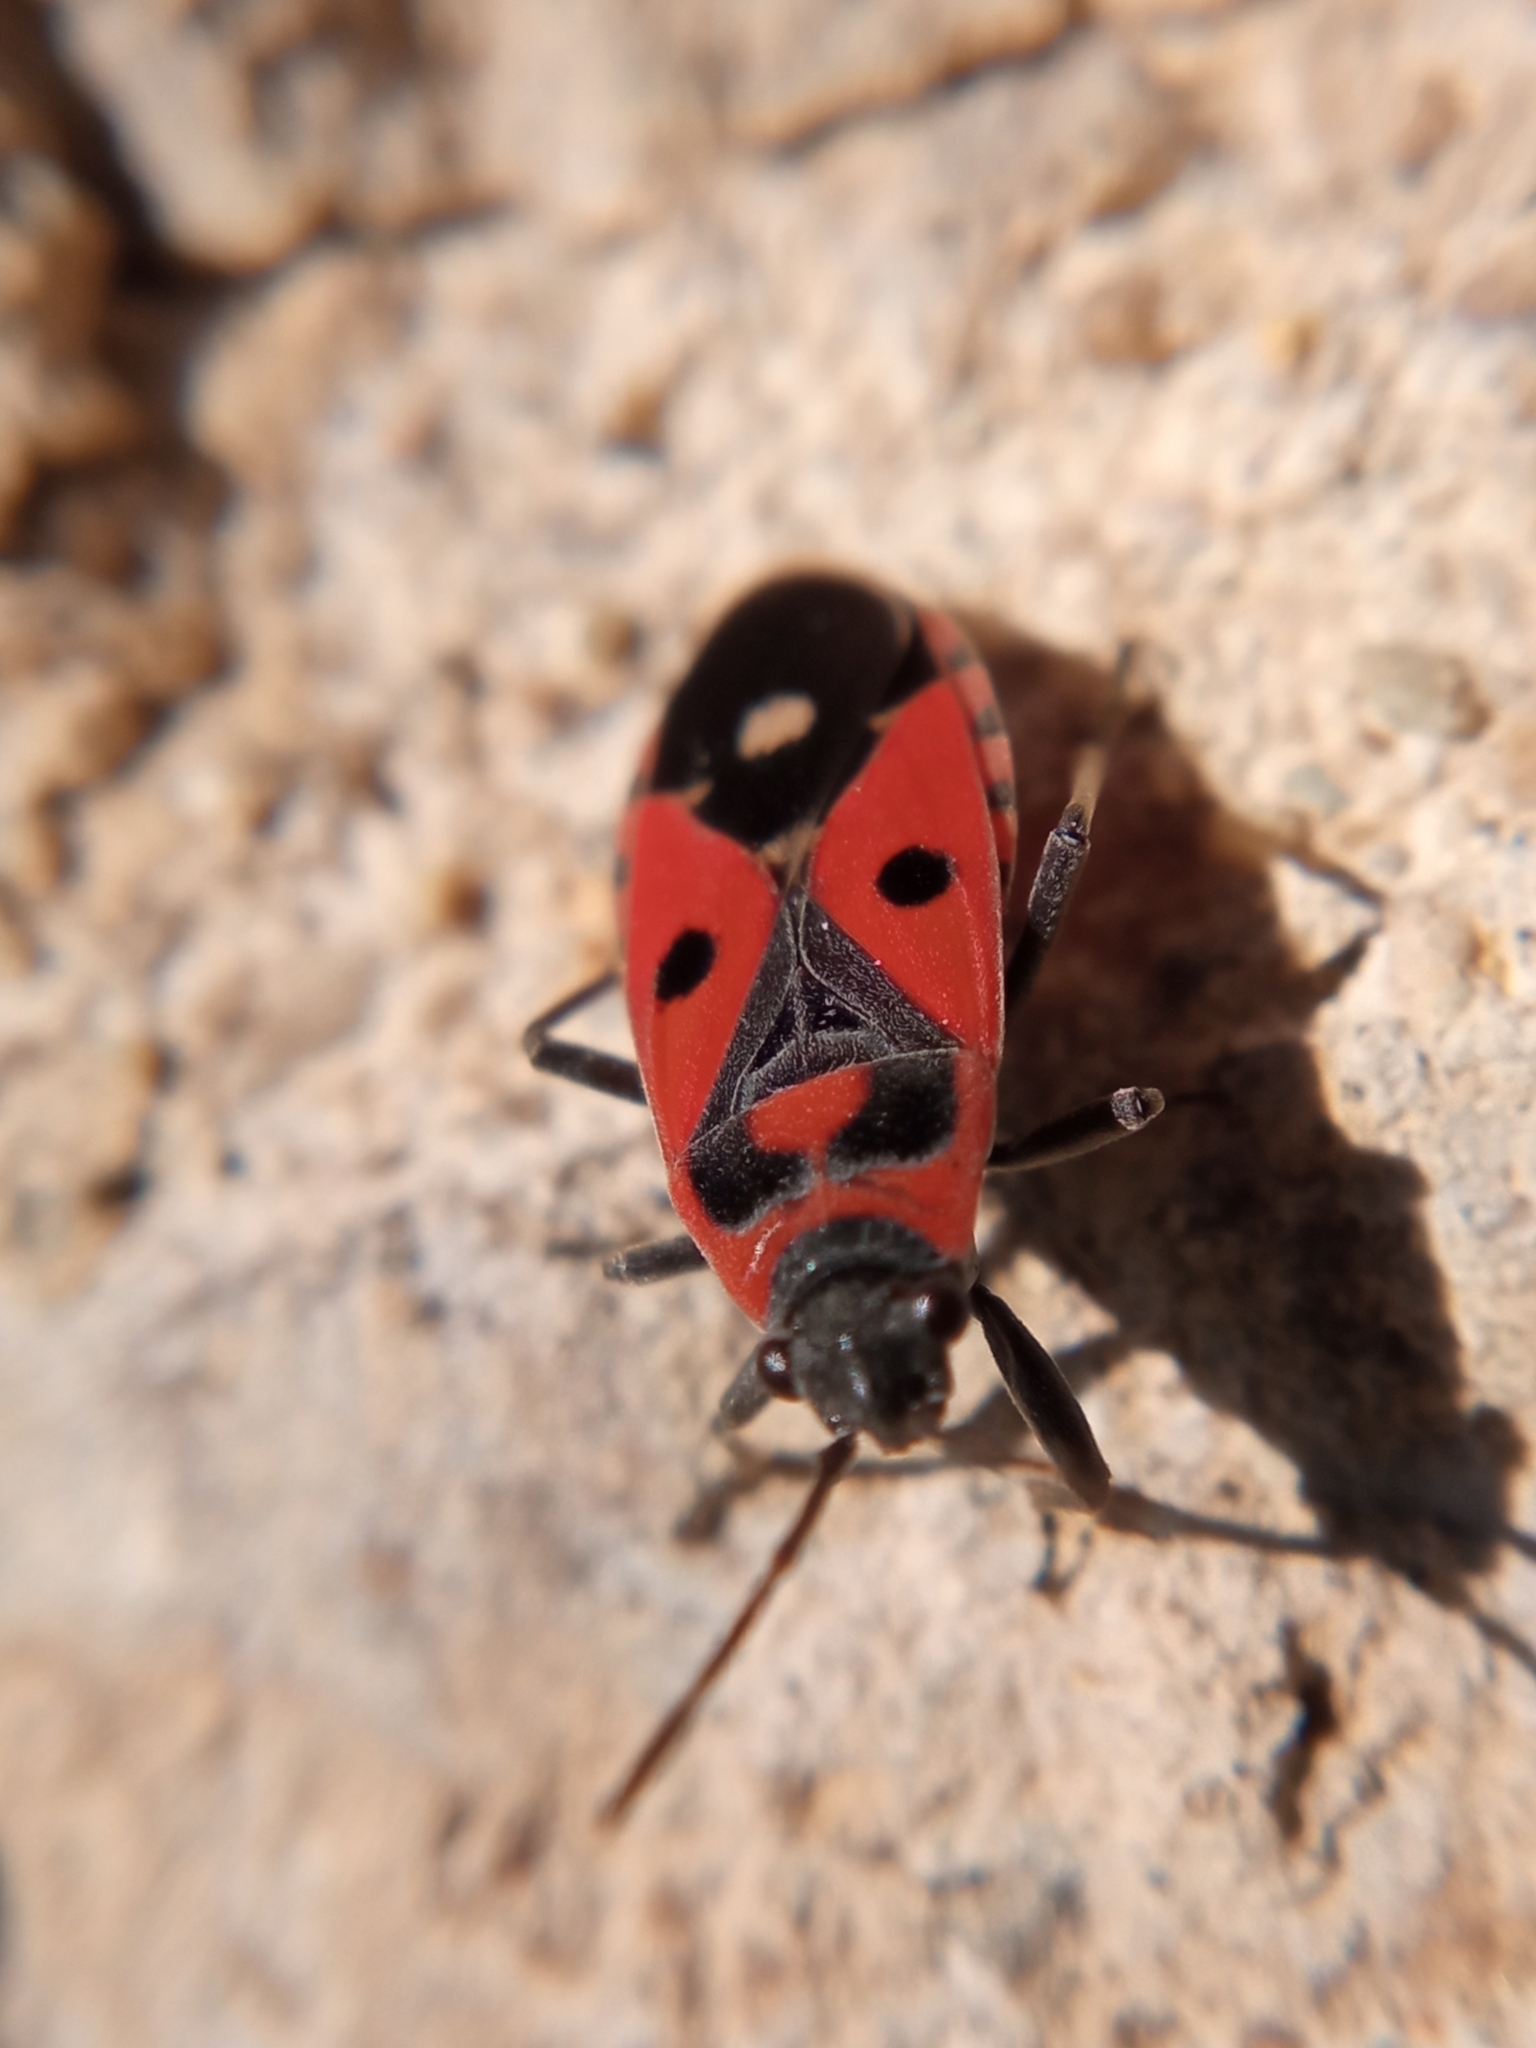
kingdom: Animalia
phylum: Arthropoda
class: Insecta
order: Hemiptera
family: Lygaeidae
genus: Melanocoryphus
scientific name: Melanocoryphus albomaculatus
